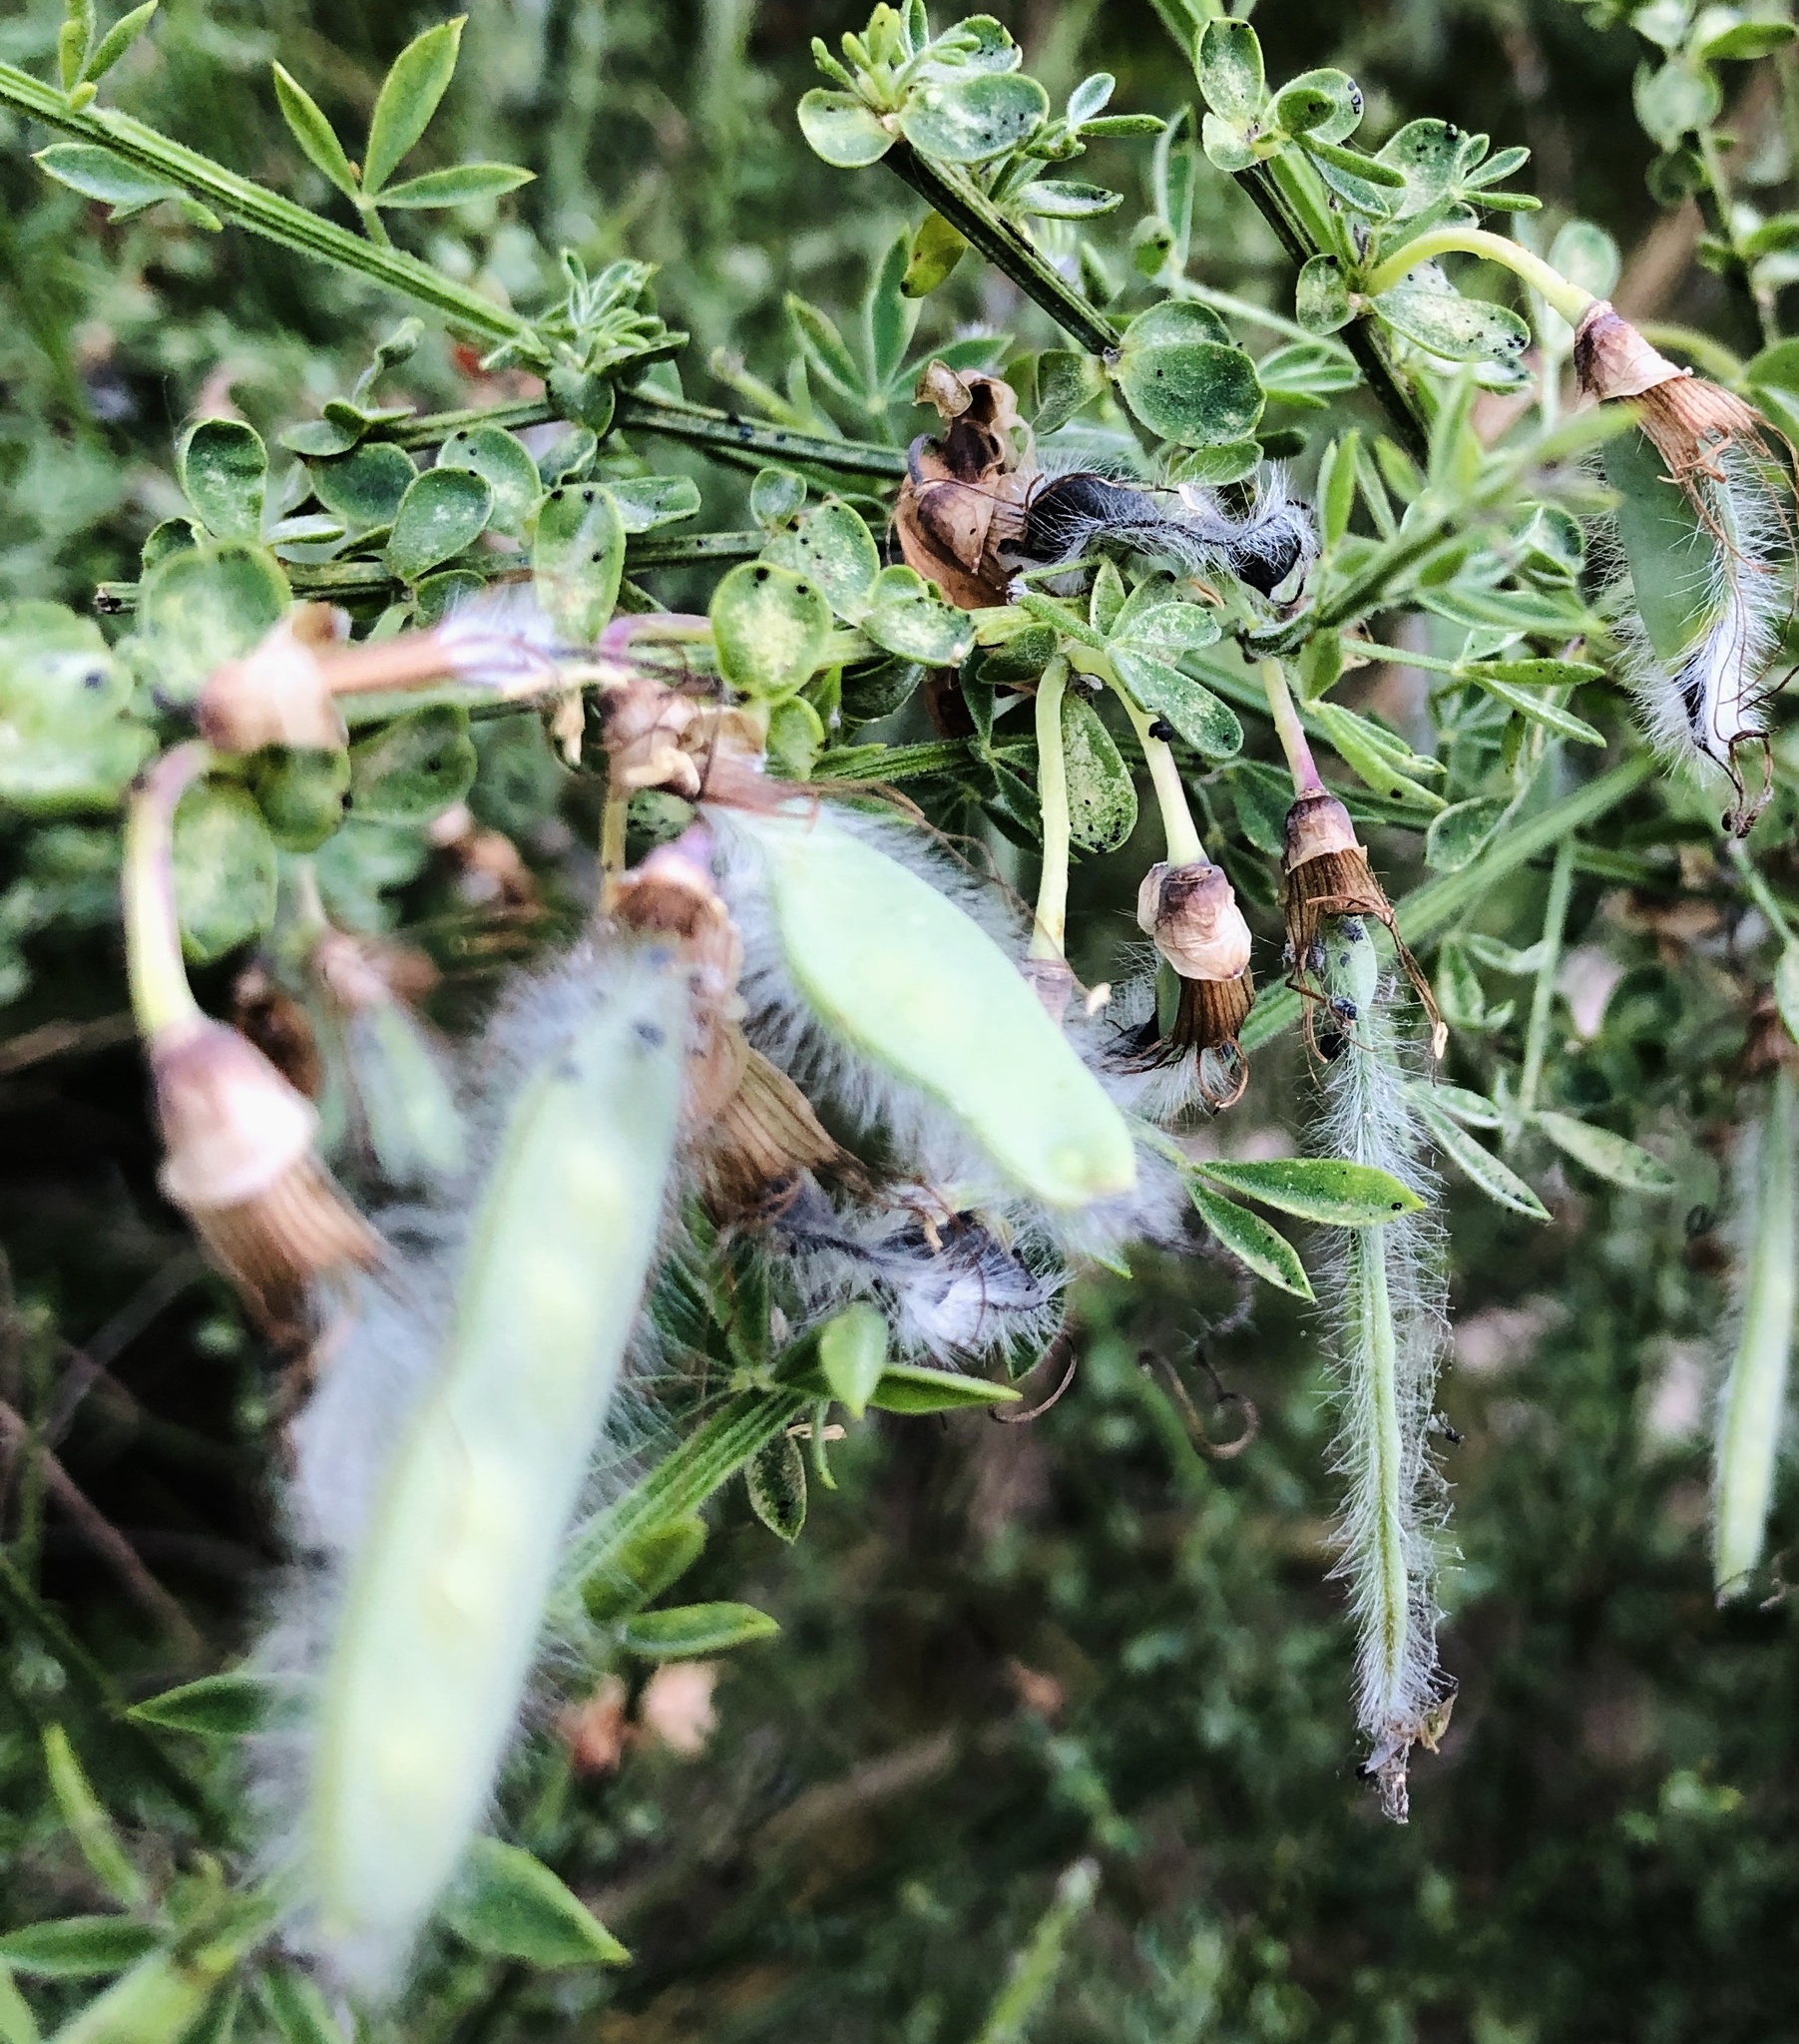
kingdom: Plantae
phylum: Tracheophyta
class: Magnoliopsida
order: Fabales
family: Fabaceae
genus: Cytisus
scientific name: Cytisus scoparius
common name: Scotch broom
